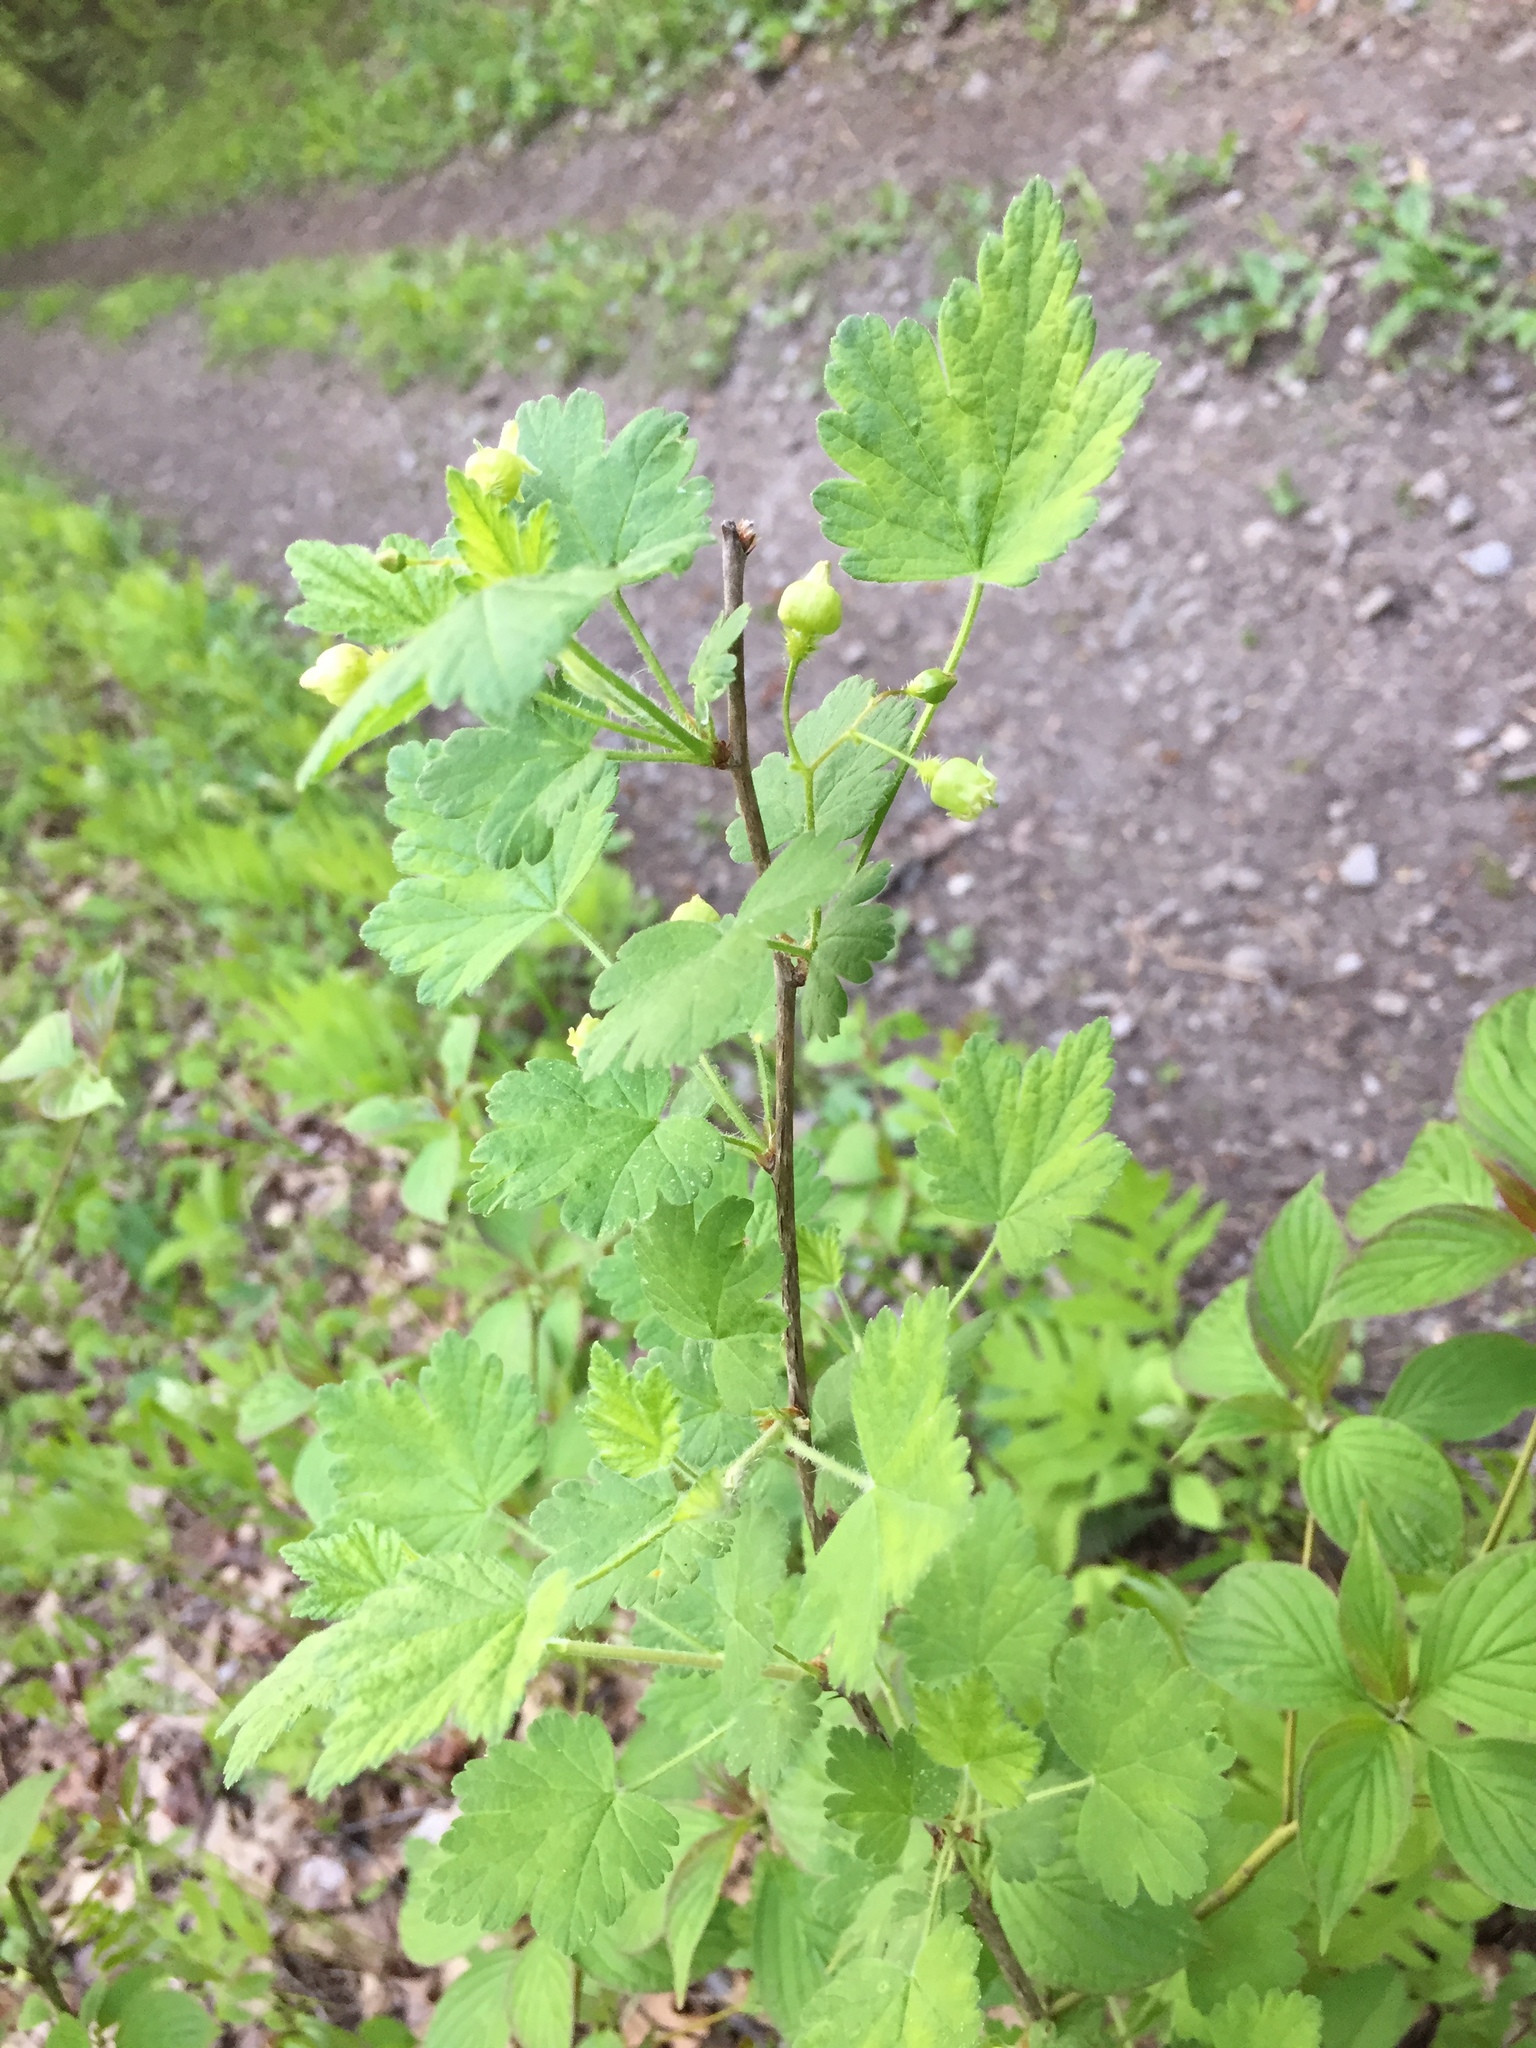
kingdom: Plantae
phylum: Tracheophyta
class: Magnoliopsida
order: Saxifragales
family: Grossulariaceae
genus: Ribes
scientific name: Ribes cynosbati
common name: American gooseberry
